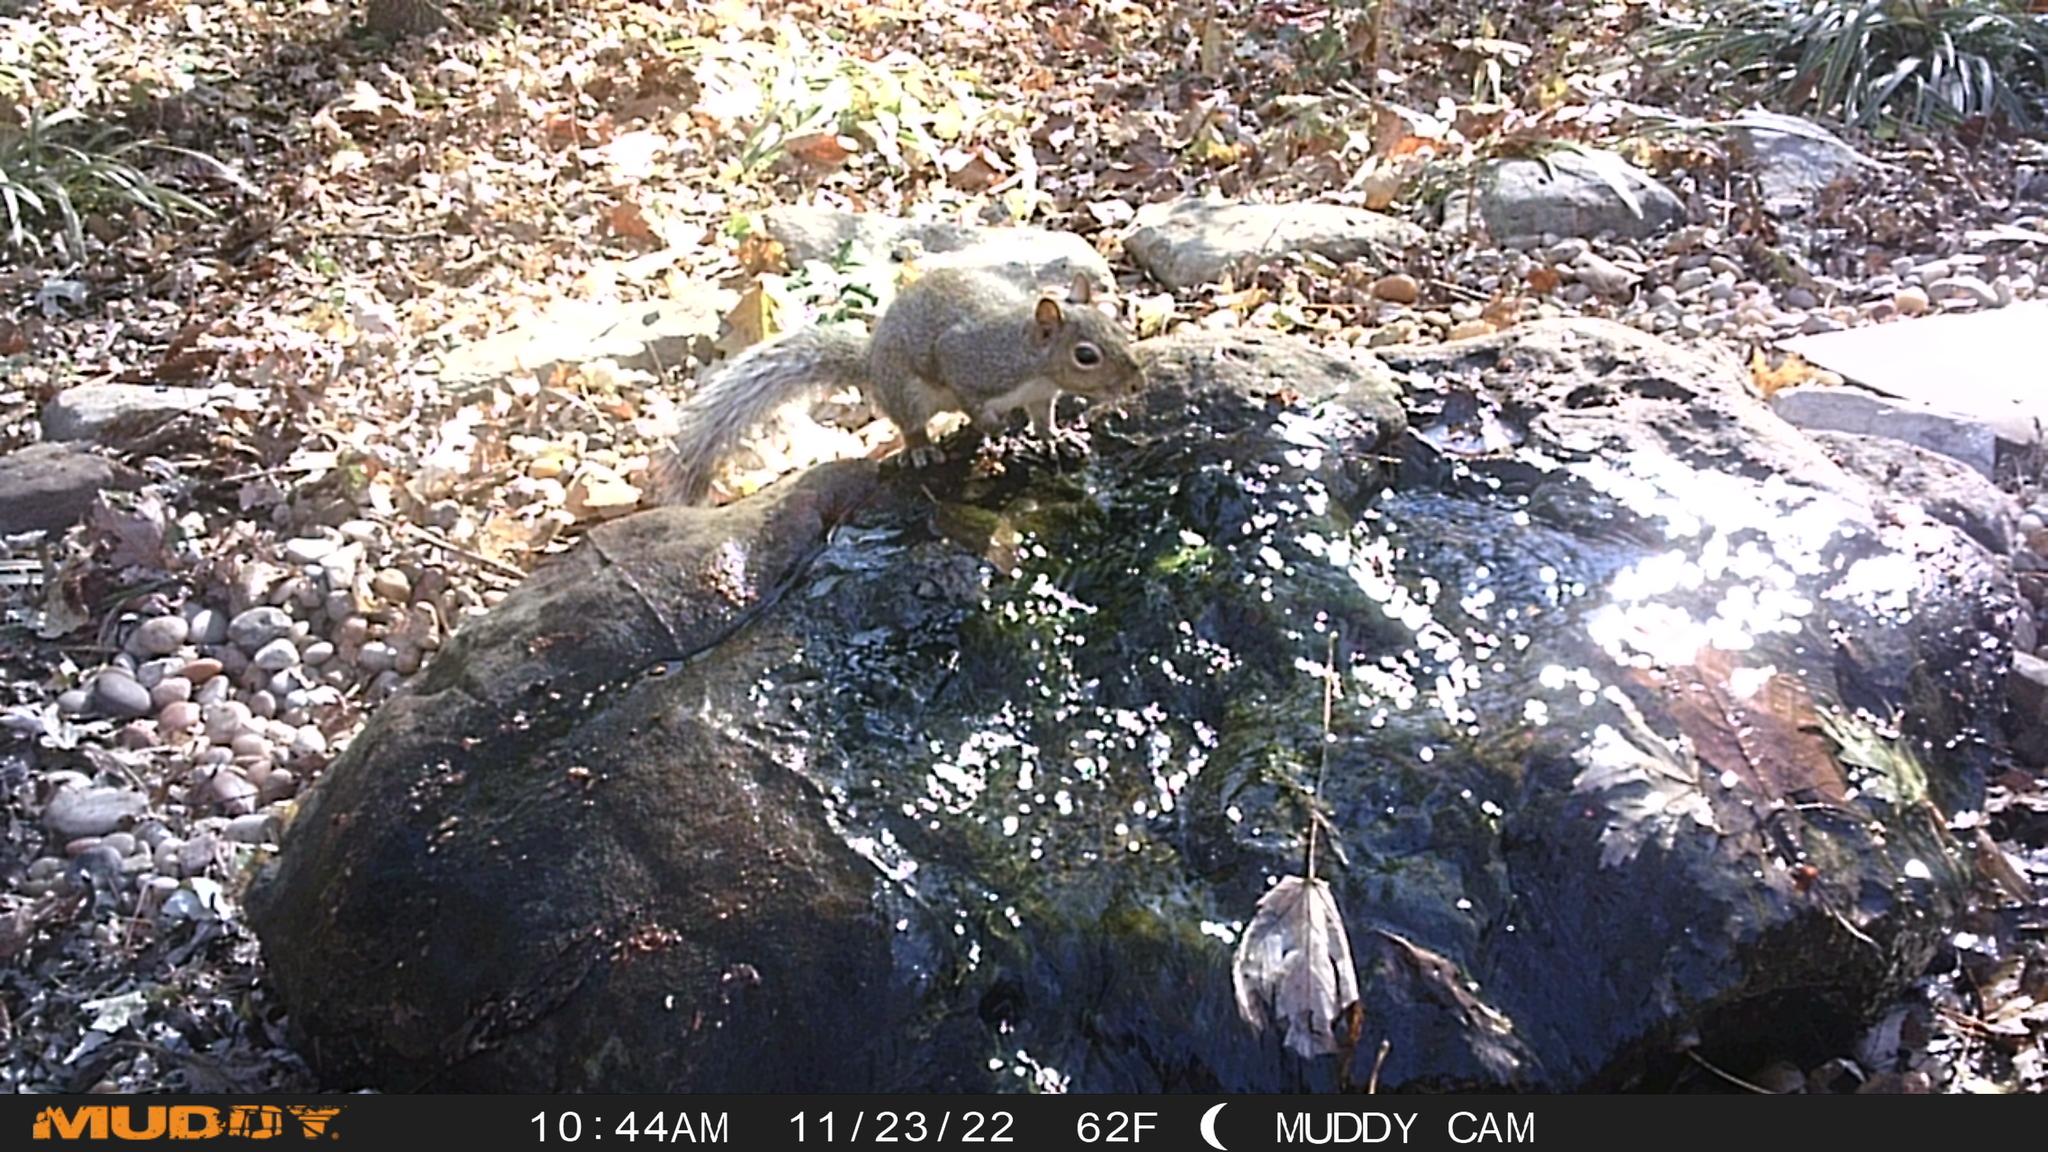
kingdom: Animalia
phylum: Chordata
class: Mammalia
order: Rodentia
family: Sciuridae
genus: Sciurus
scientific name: Sciurus carolinensis
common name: Eastern gray squirrel
